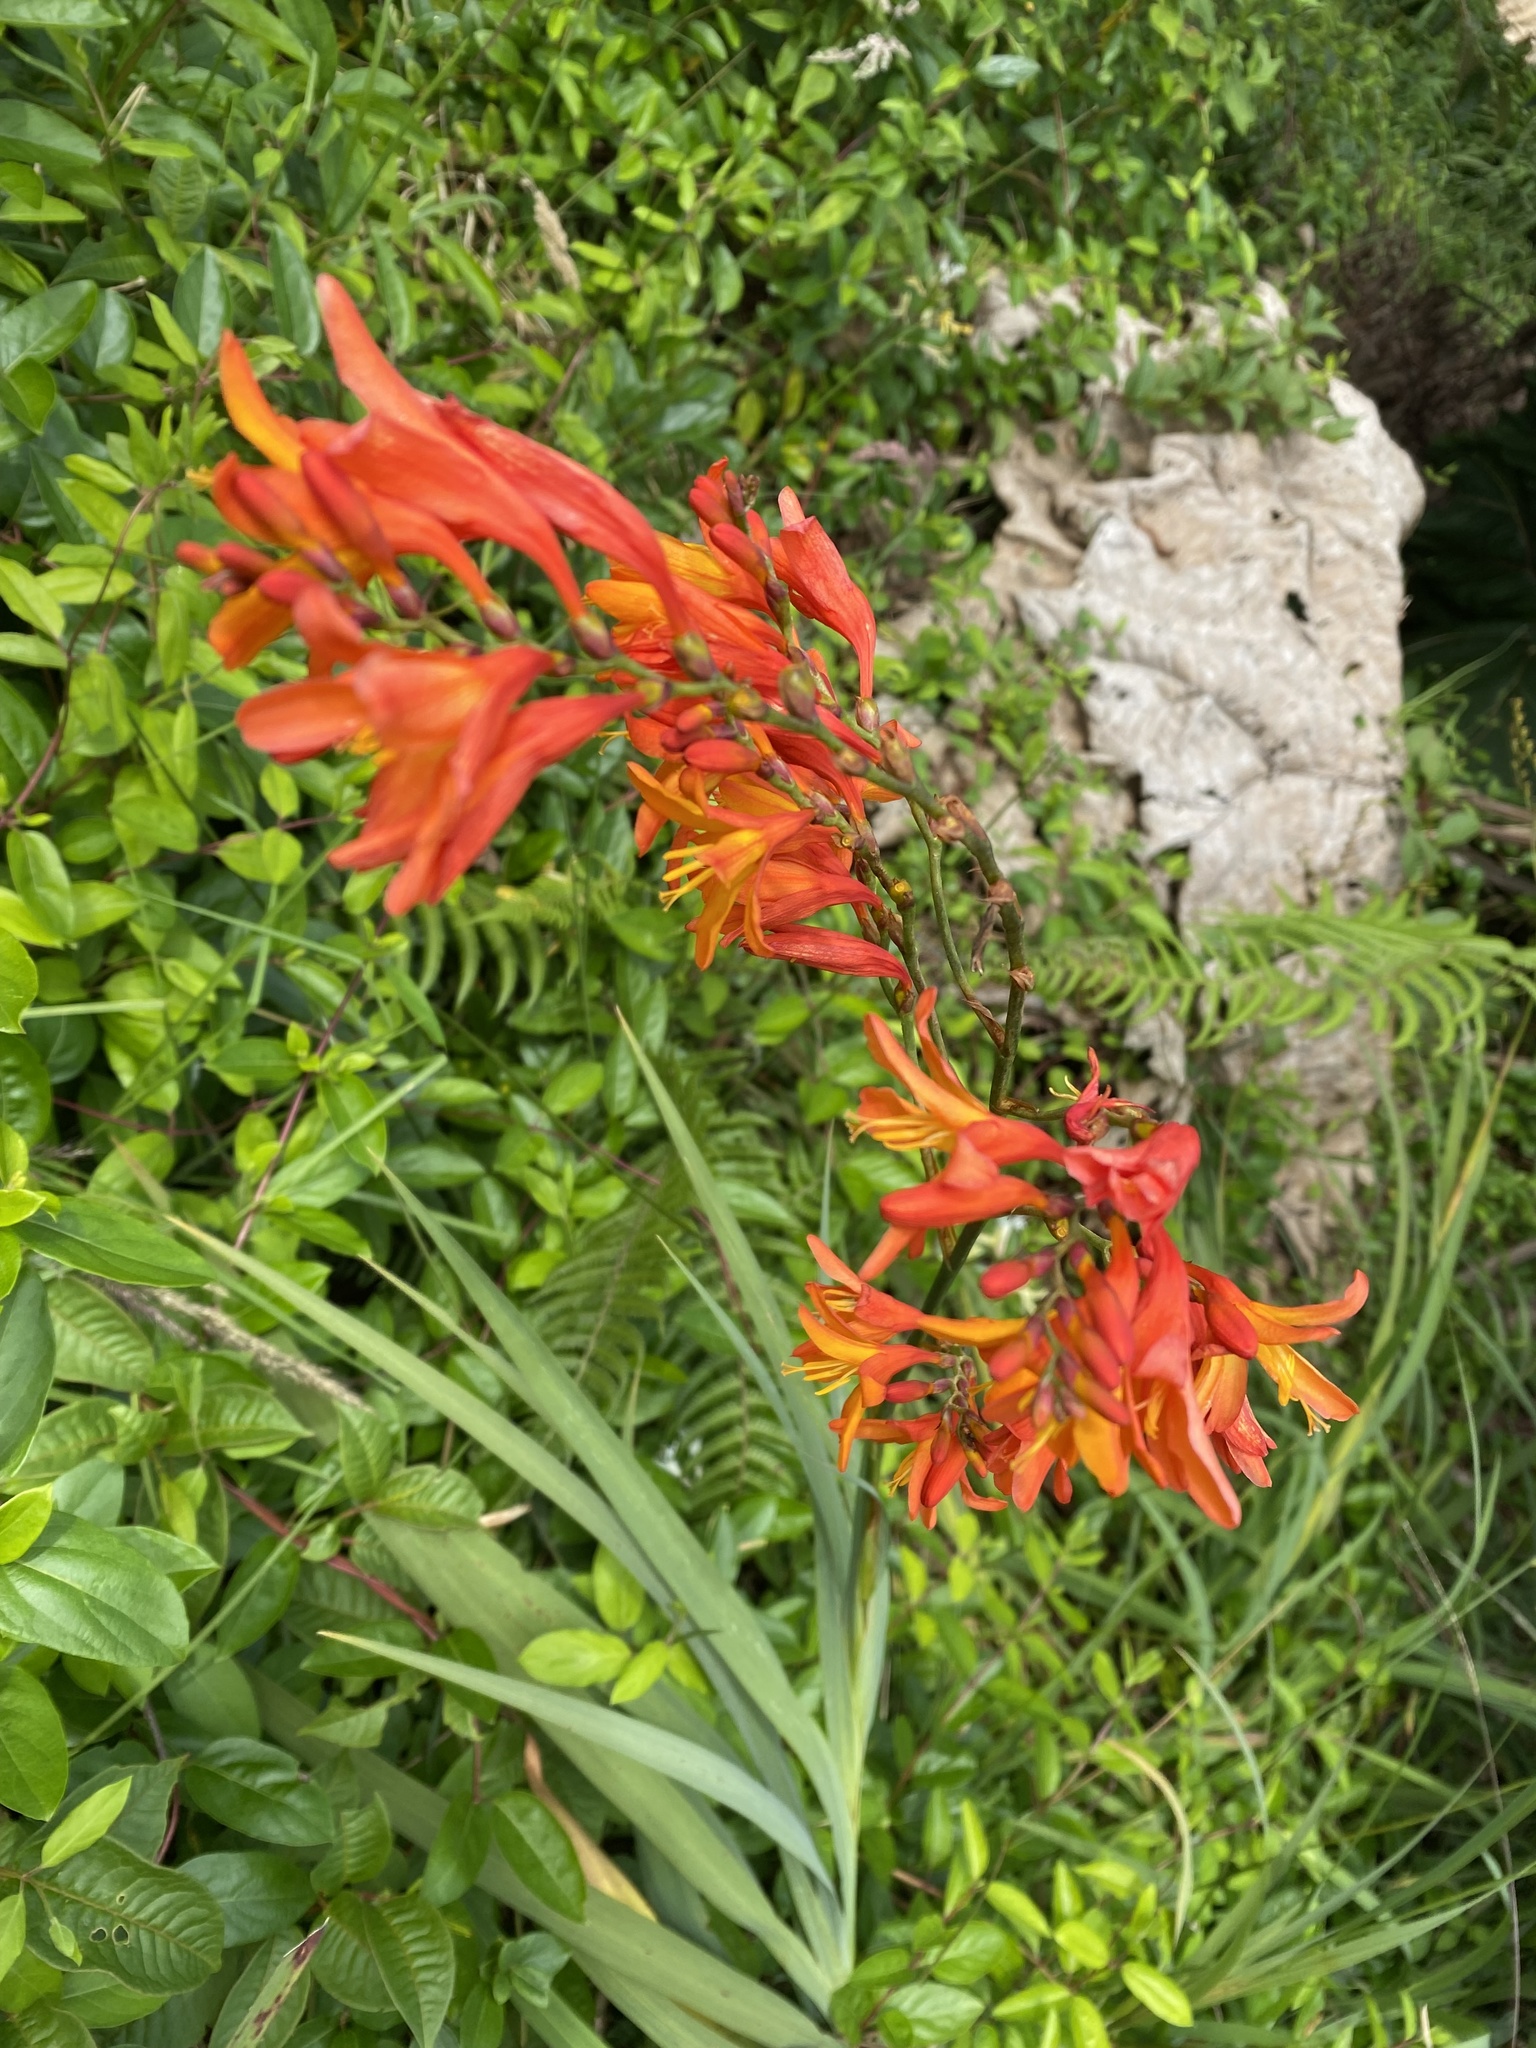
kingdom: Plantae
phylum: Tracheophyta
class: Liliopsida
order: Asparagales
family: Iridaceae
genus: Crocosmia
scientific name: Crocosmia crocosmiiflora
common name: Montbretia
